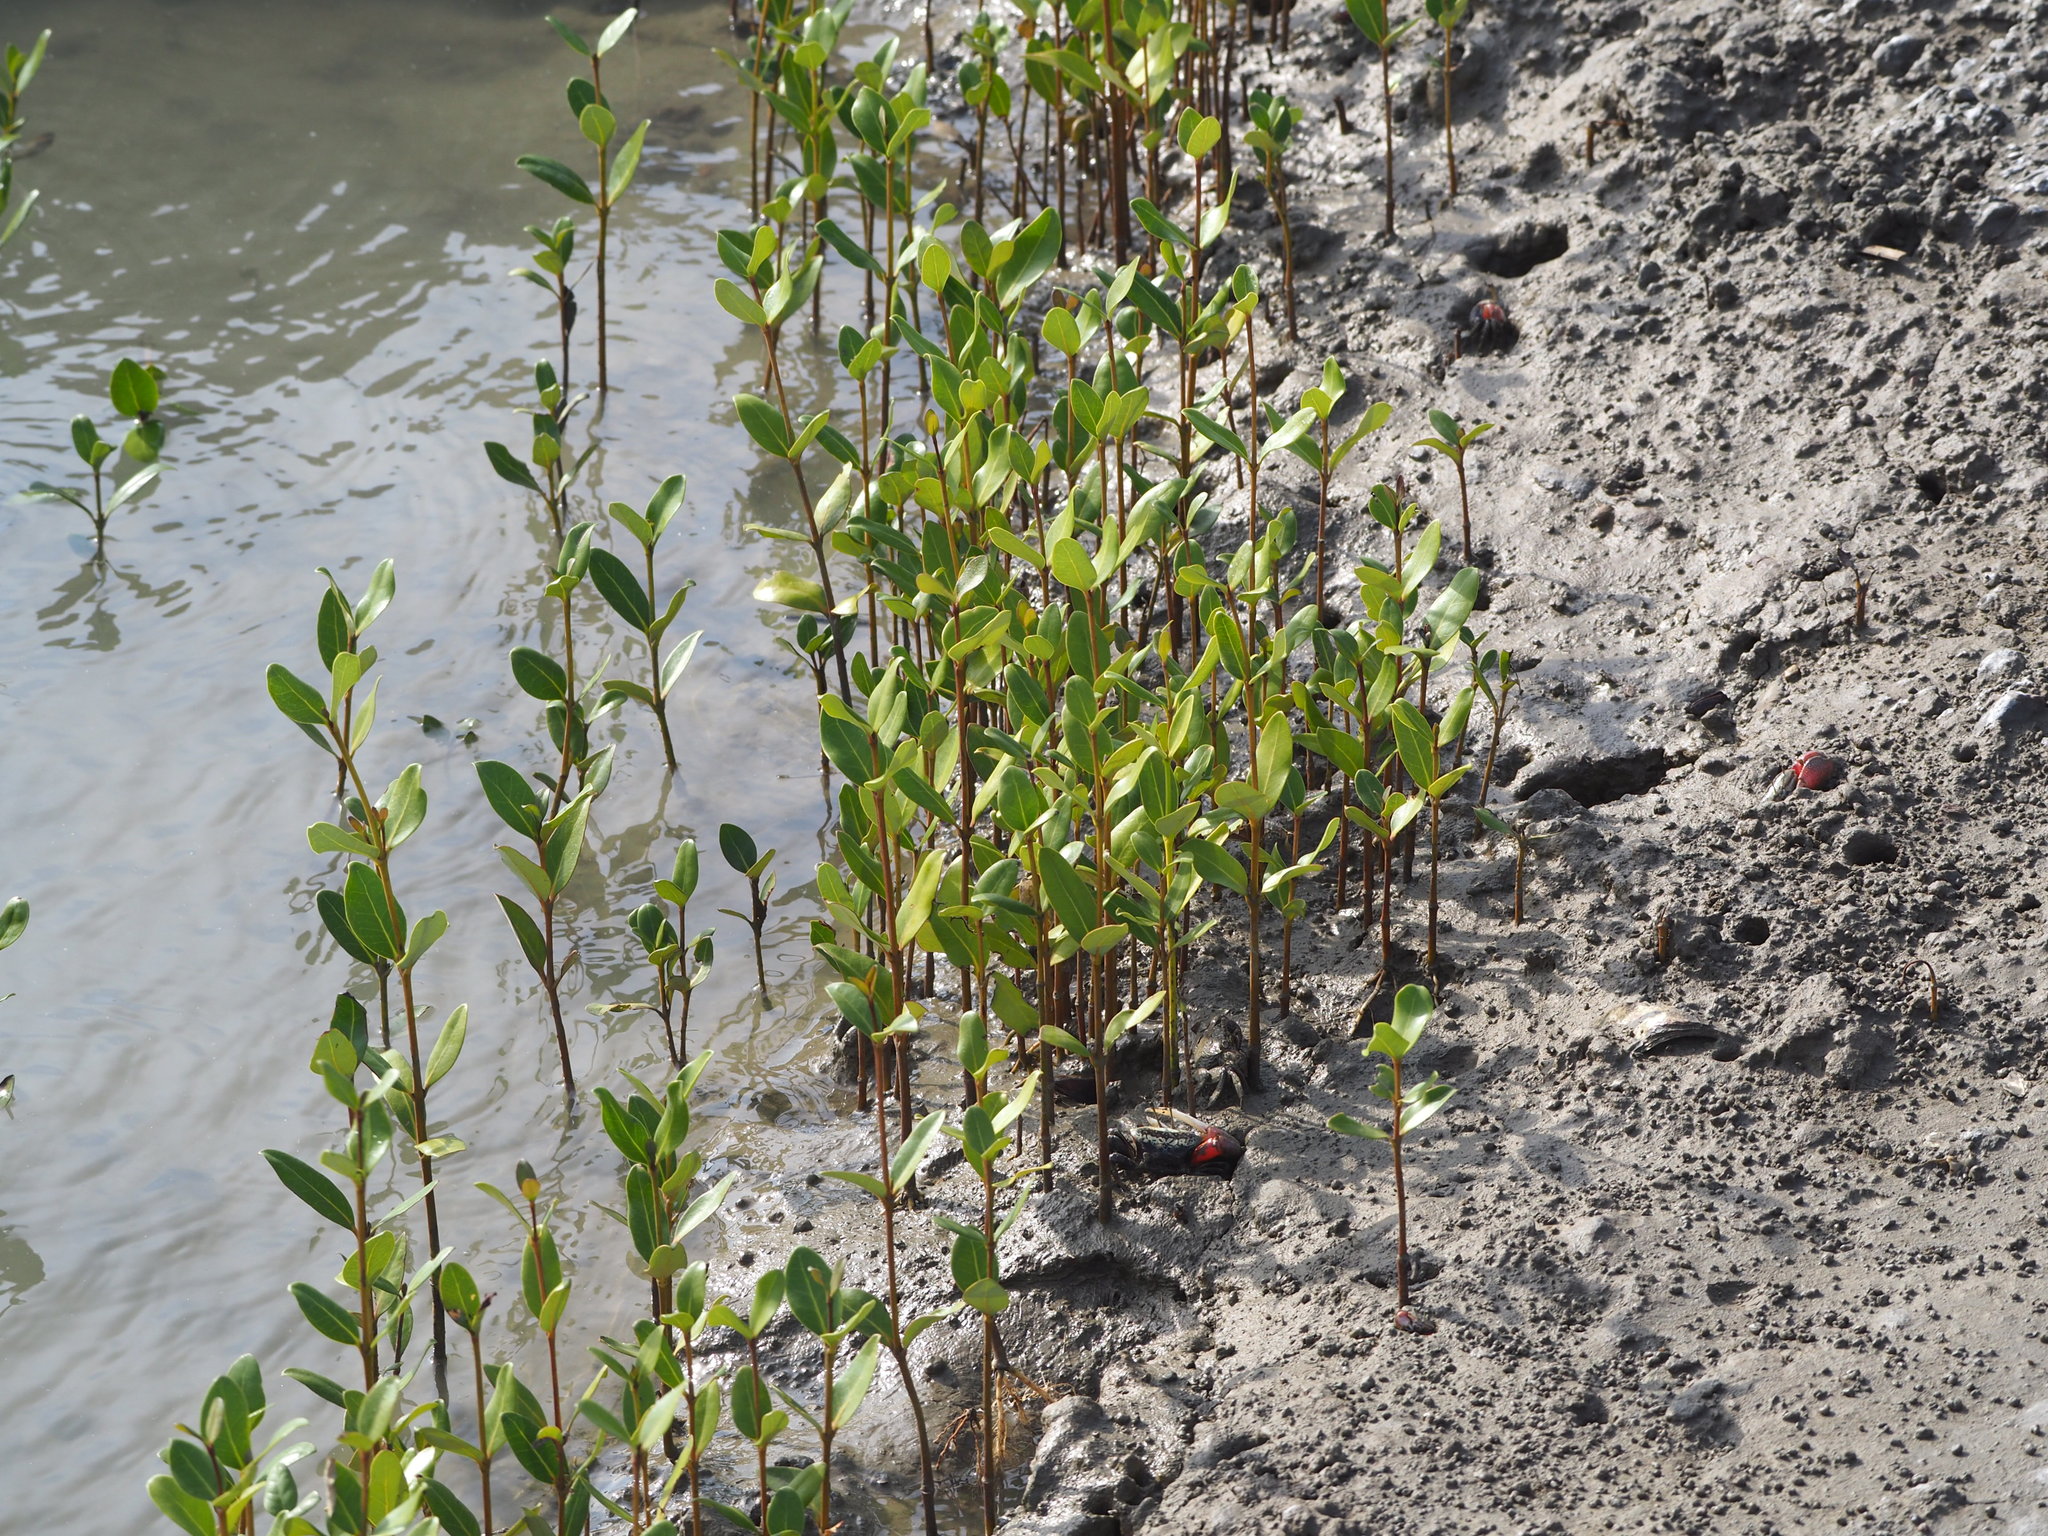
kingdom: Plantae
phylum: Tracheophyta
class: Magnoliopsida
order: Lamiales
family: Acanthaceae
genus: Avicennia
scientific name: Avicennia marina
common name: Gray mangrove
